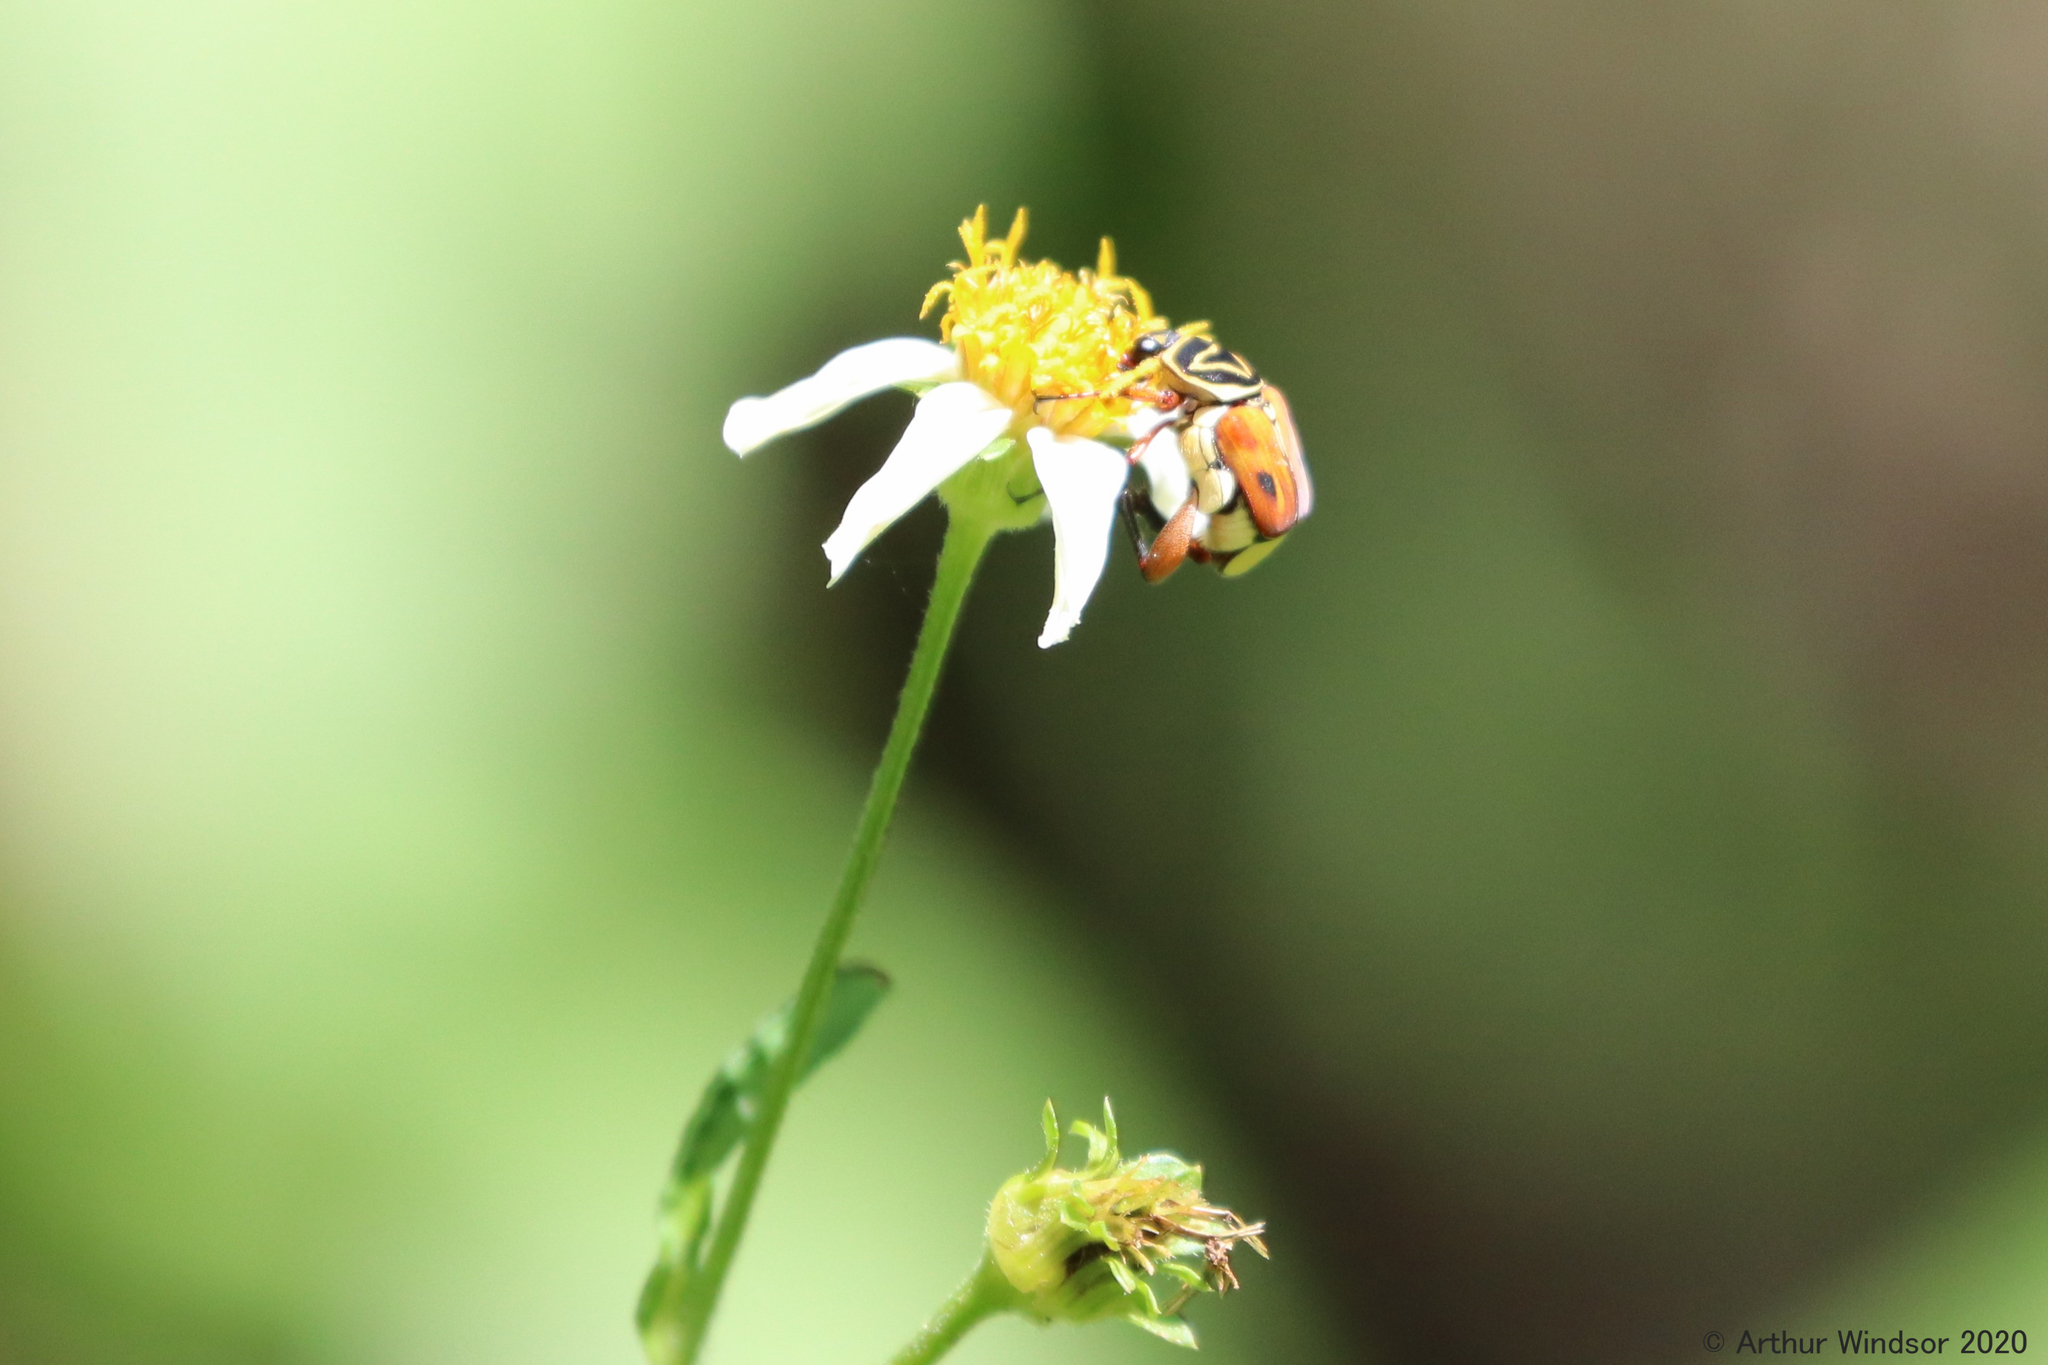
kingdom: Animalia
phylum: Arthropoda
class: Insecta
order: Coleoptera
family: Scarabaeidae
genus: Trigonopeltastes
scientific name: Trigonopeltastes delta
